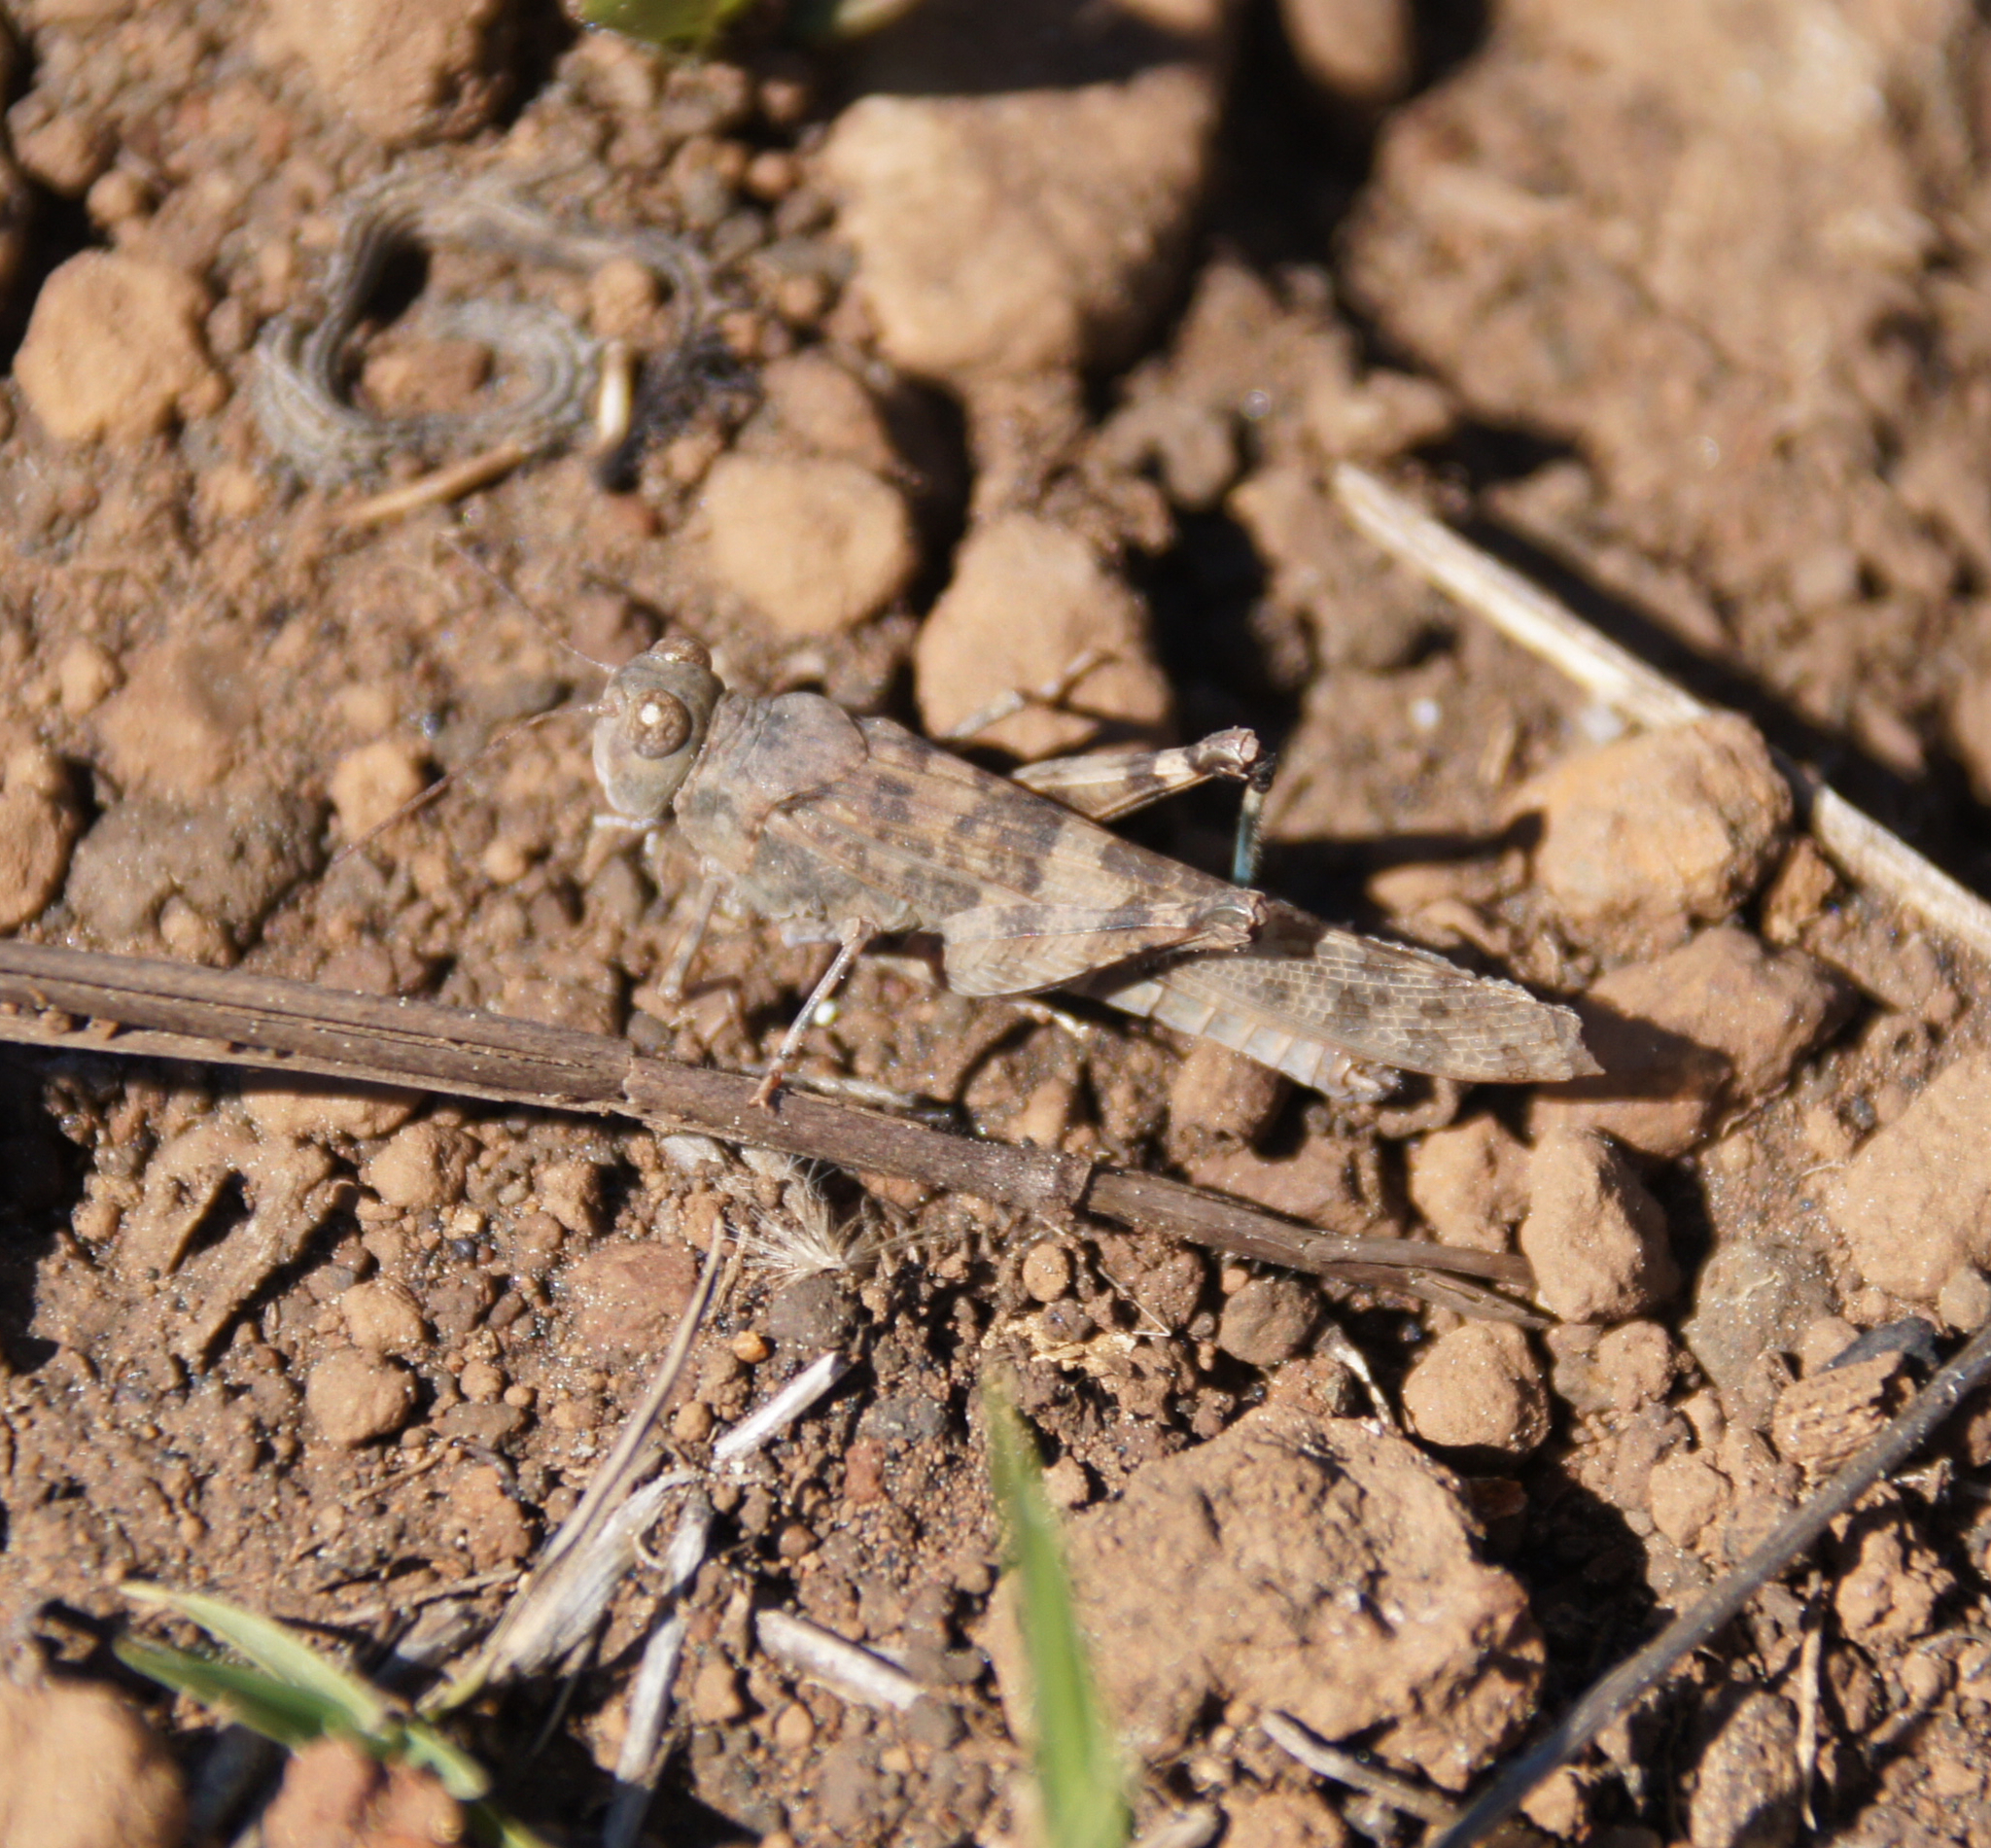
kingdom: Animalia
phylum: Arthropoda
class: Insecta
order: Orthoptera
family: Acrididae
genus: Sphingonotus
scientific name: Sphingonotus rubescens
